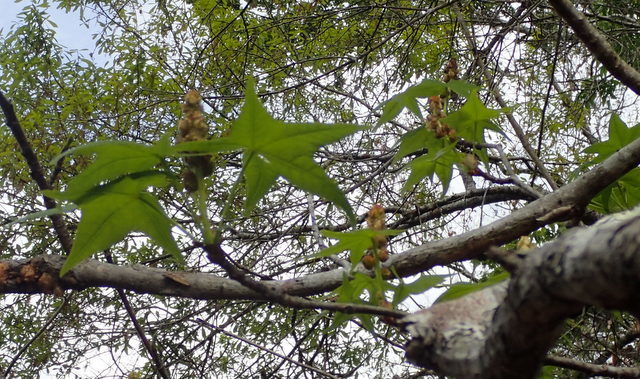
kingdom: Plantae
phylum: Tracheophyta
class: Magnoliopsida
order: Saxifragales
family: Altingiaceae
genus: Liquidambar
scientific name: Liquidambar styraciflua
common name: Sweet gum
